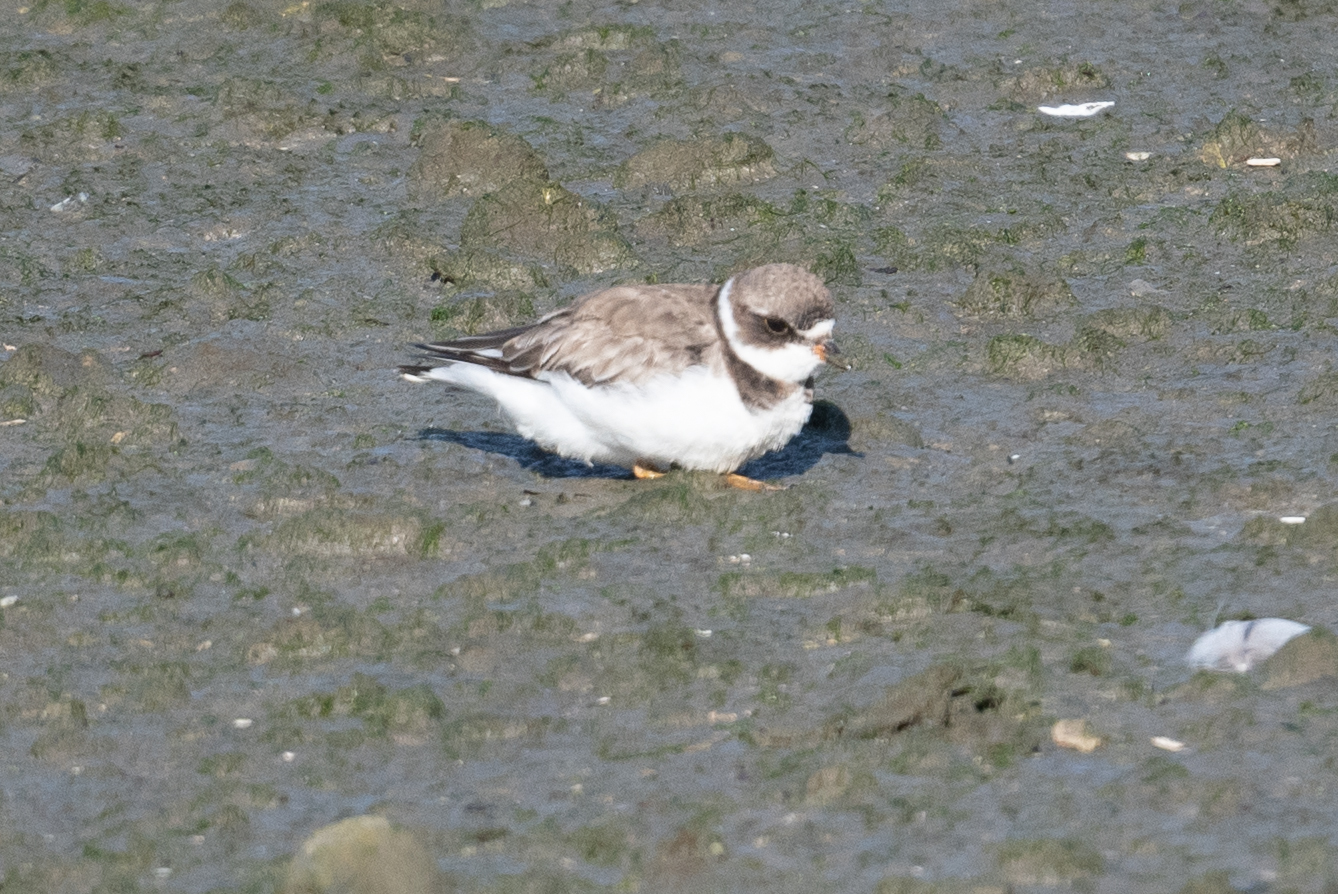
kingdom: Animalia
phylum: Chordata
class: Aves
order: Charadriiformes
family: Charadriidae
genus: Charadrius
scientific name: Charadrius semipalmatus
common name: Semipalmated plover
